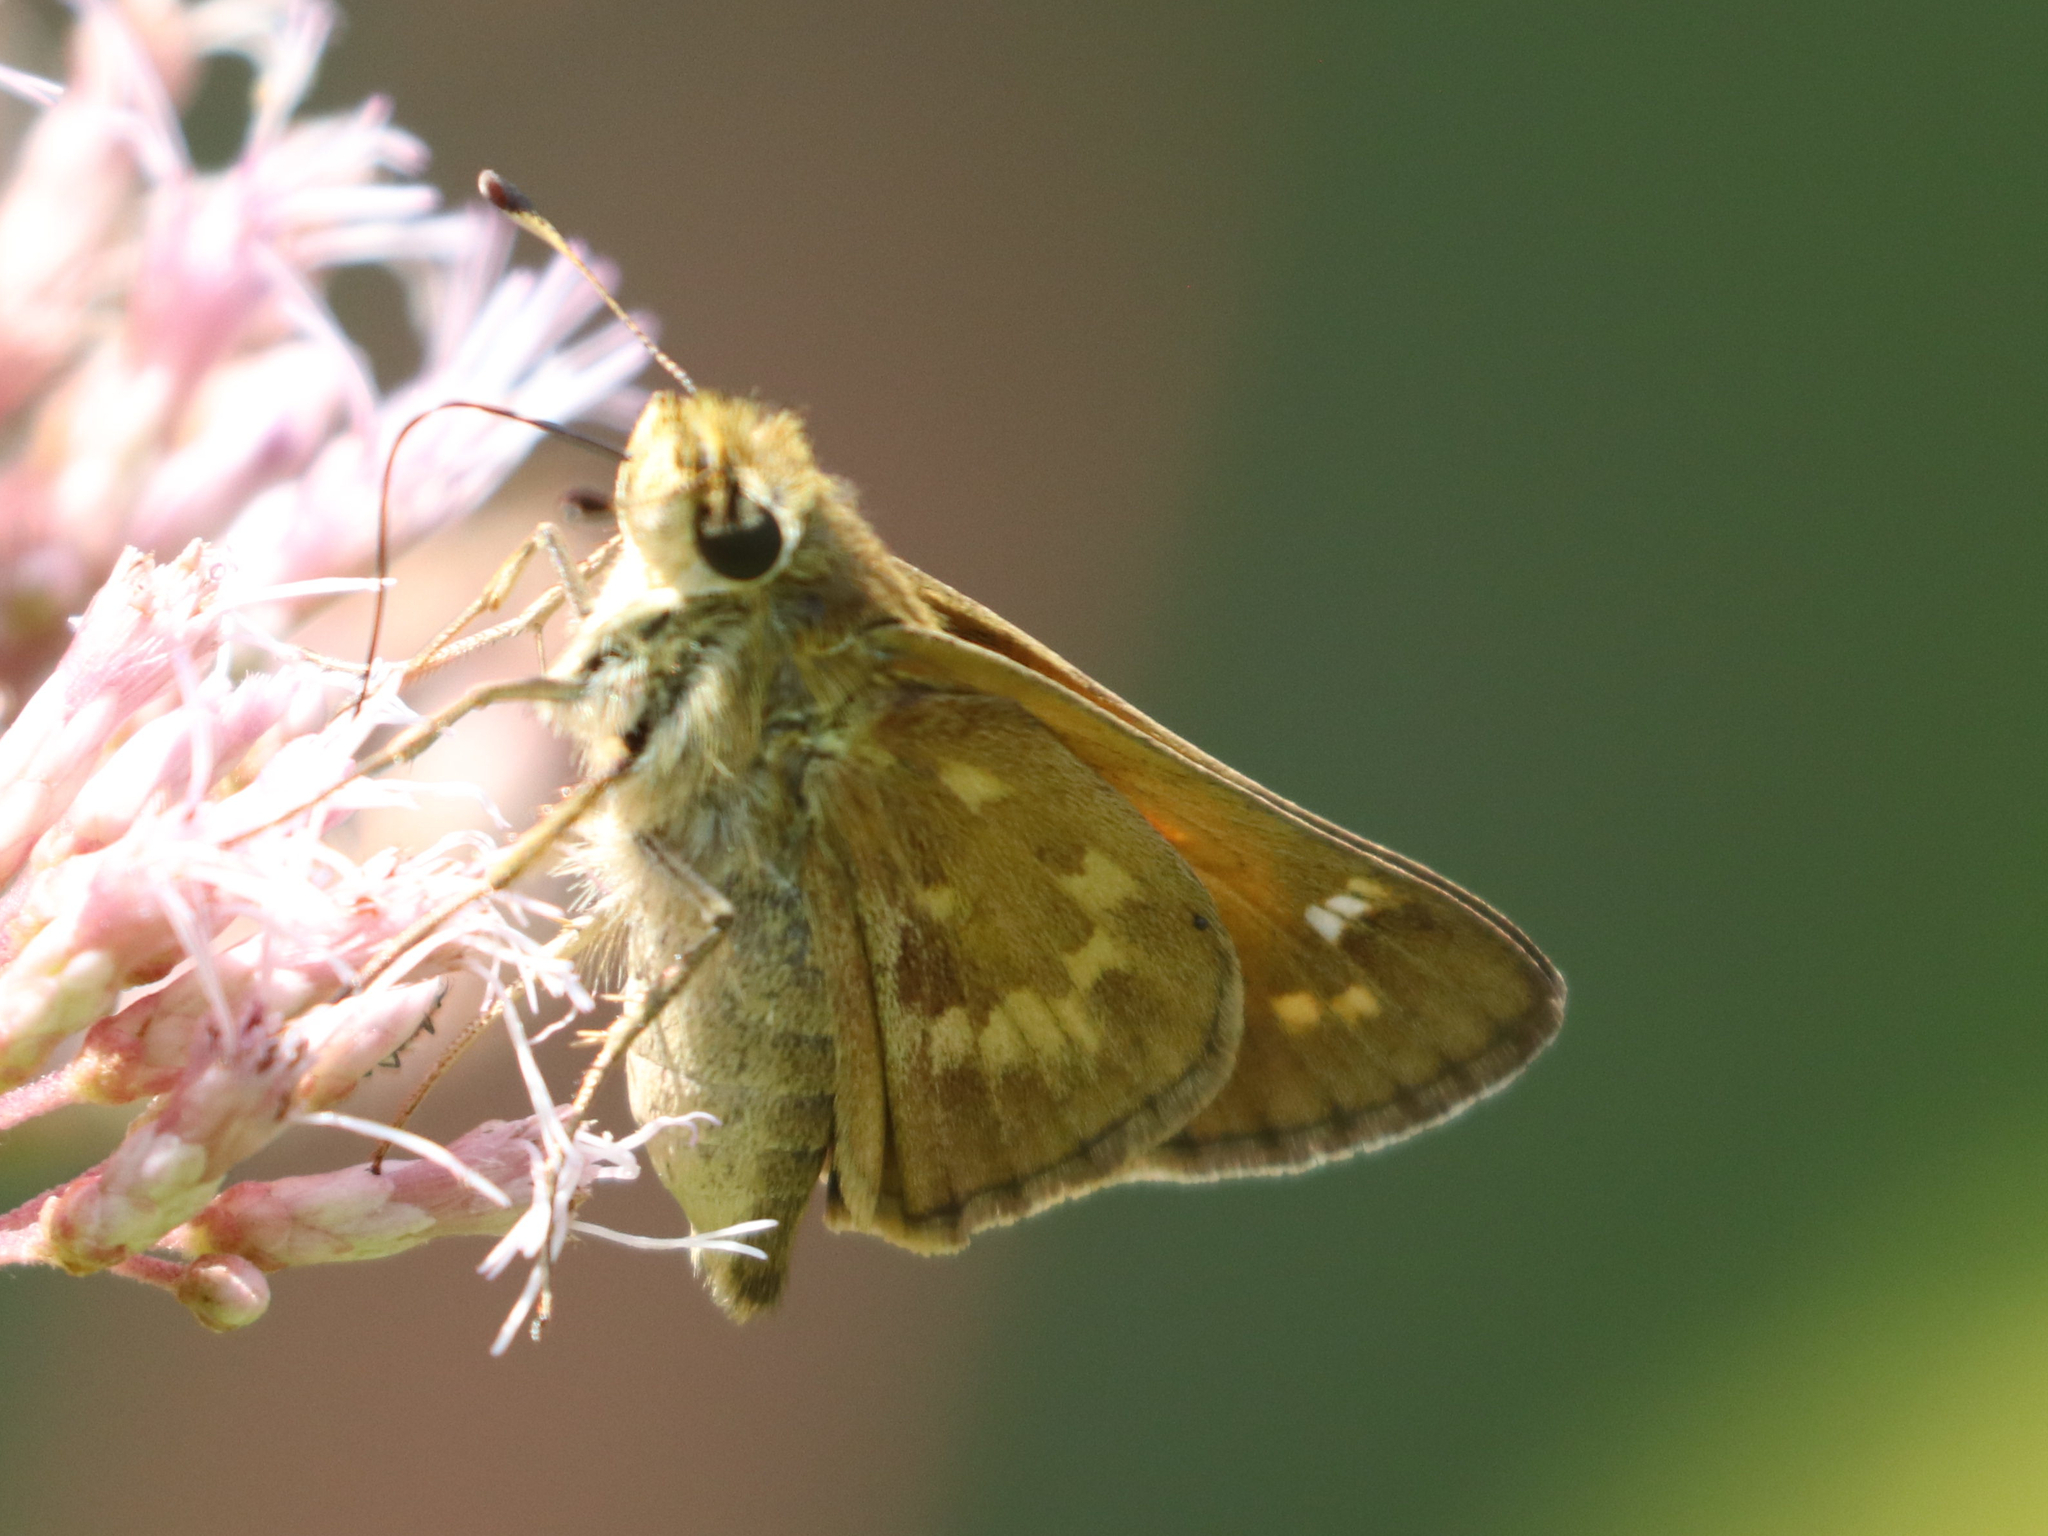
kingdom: Animalia
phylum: Arthropoda
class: Insecta
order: Lepidoptera
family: Hesperiidae
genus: Atalopedes
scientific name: Atalopedes
